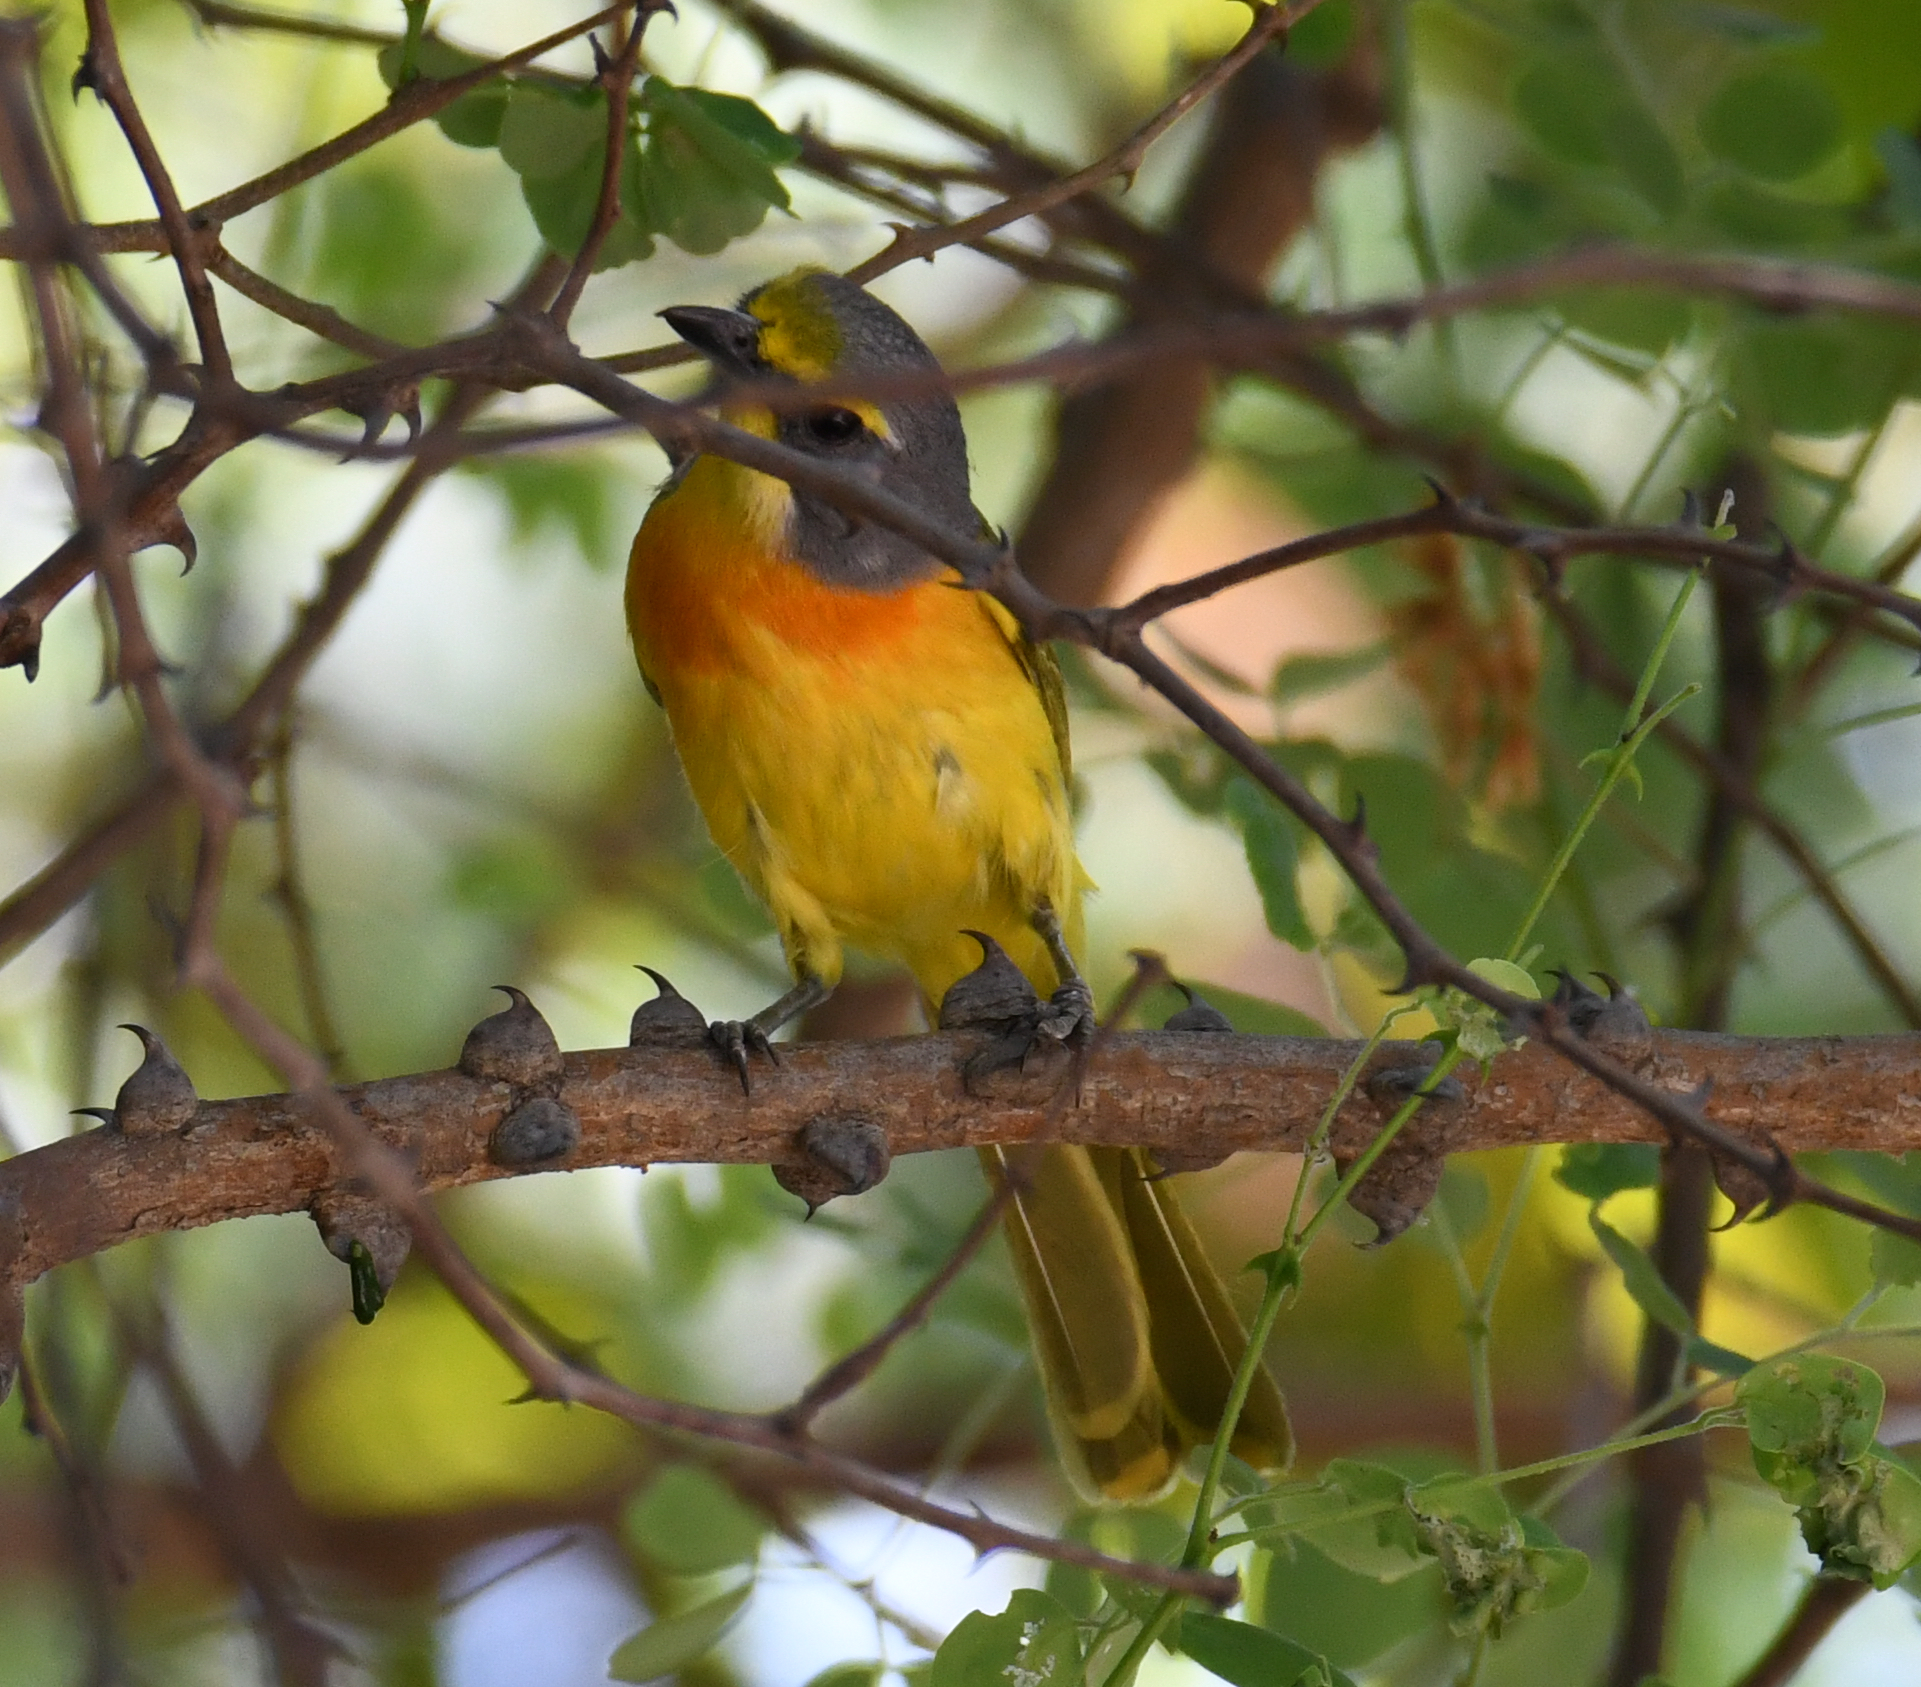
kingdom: Animalia
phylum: Chordata
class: Aves
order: Passeriformes
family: Malaconotidae
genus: Chlorophoneus
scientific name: Chlorophoneus sulfureopectus
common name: Orange-breasted bushshrike
